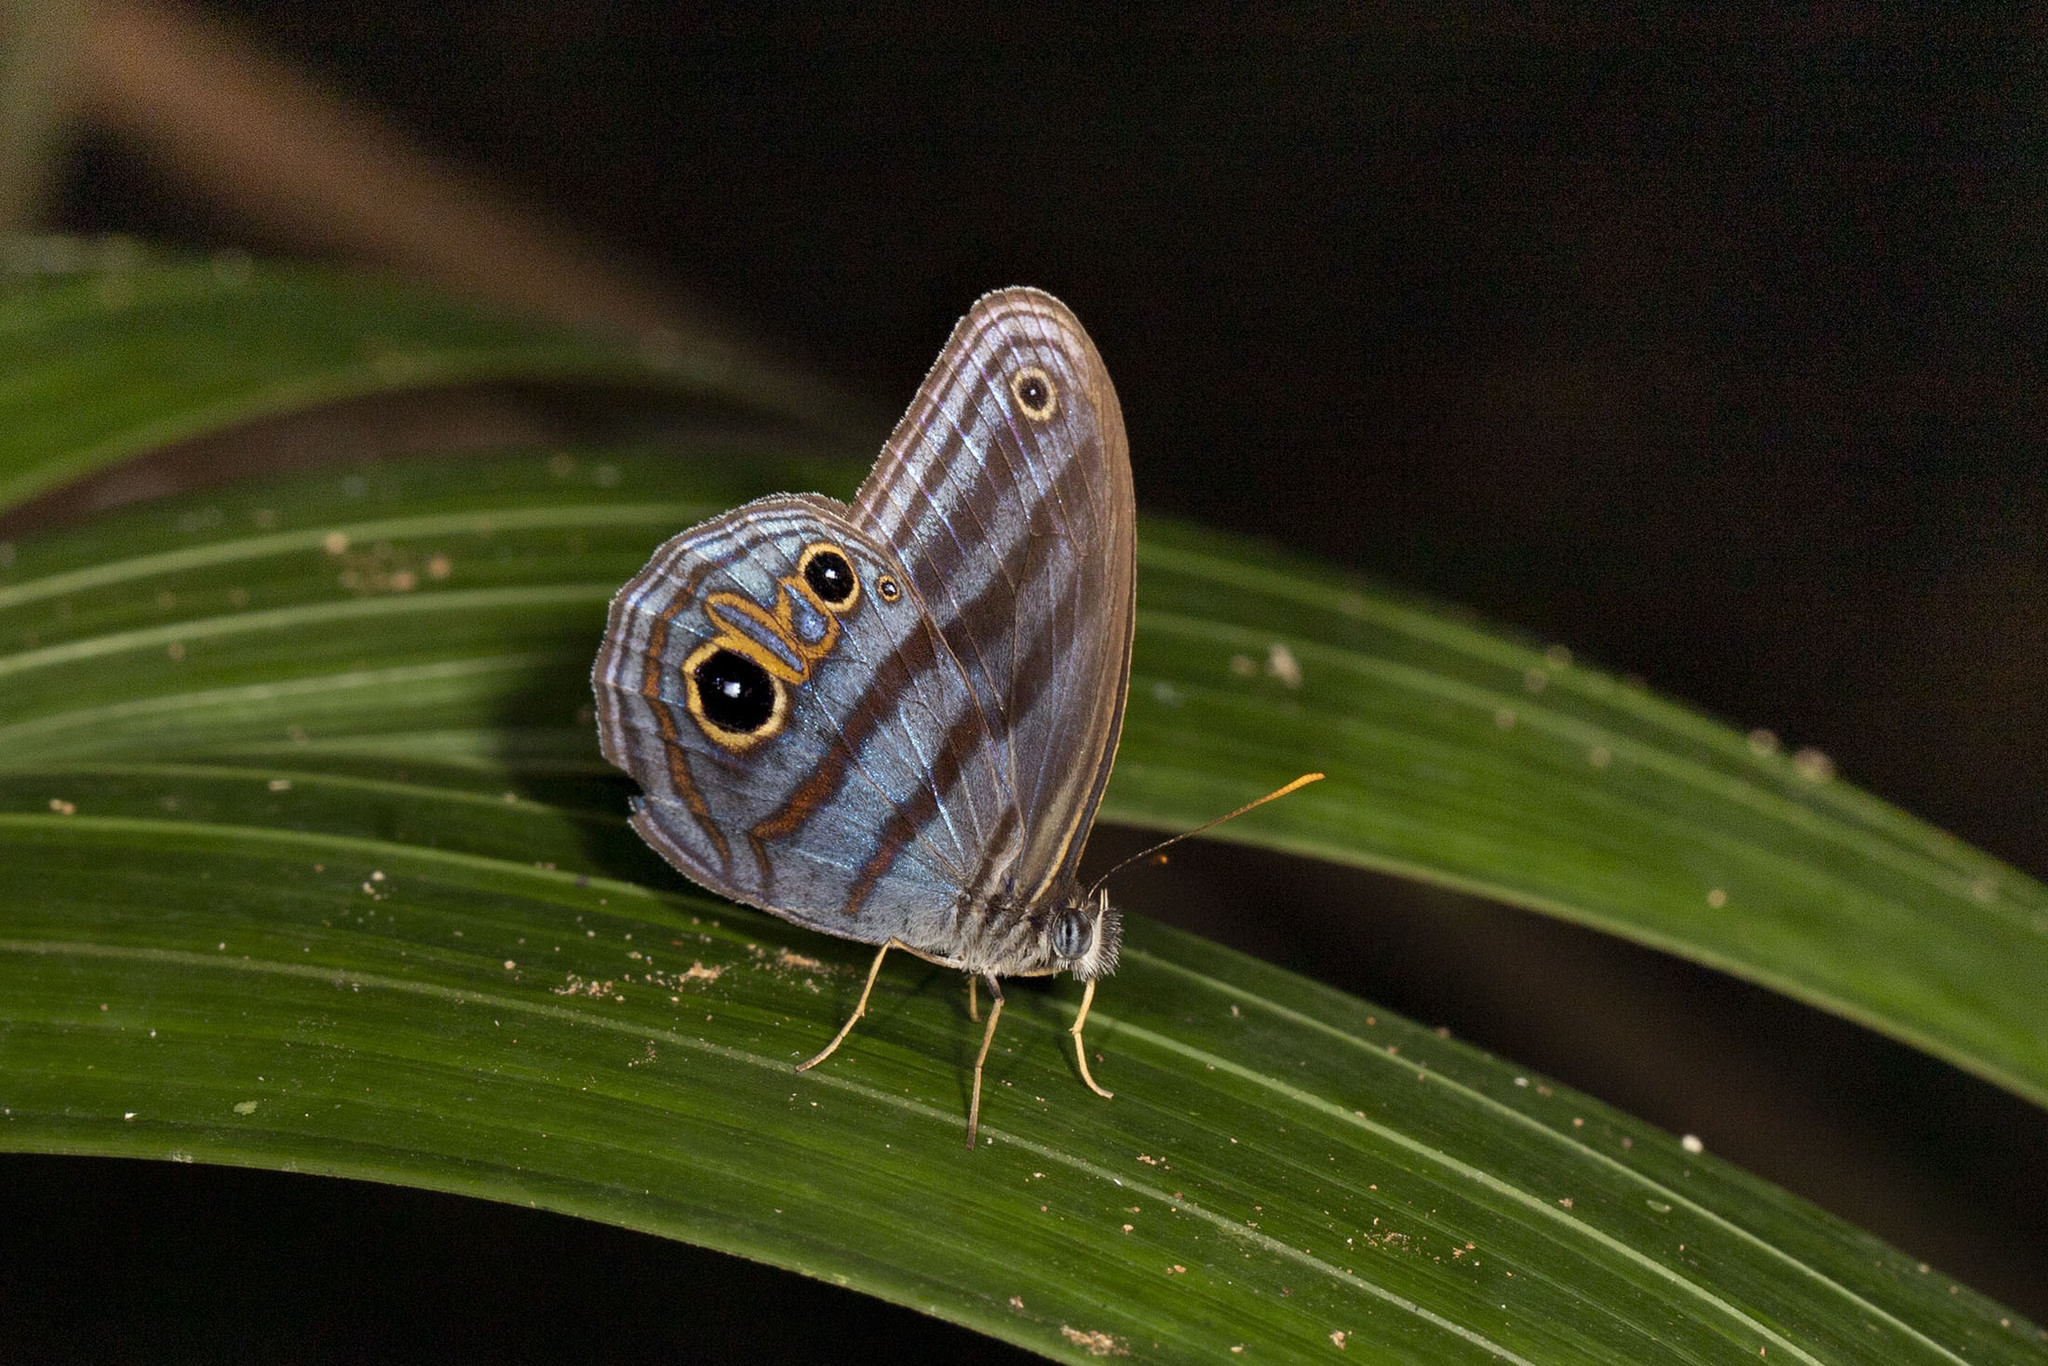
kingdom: Animalia
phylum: Arthropoda
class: Insecta
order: Lepidoptera
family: Nymphalidae
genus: Chloreuptychia
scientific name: Chloreuptychia chloris
